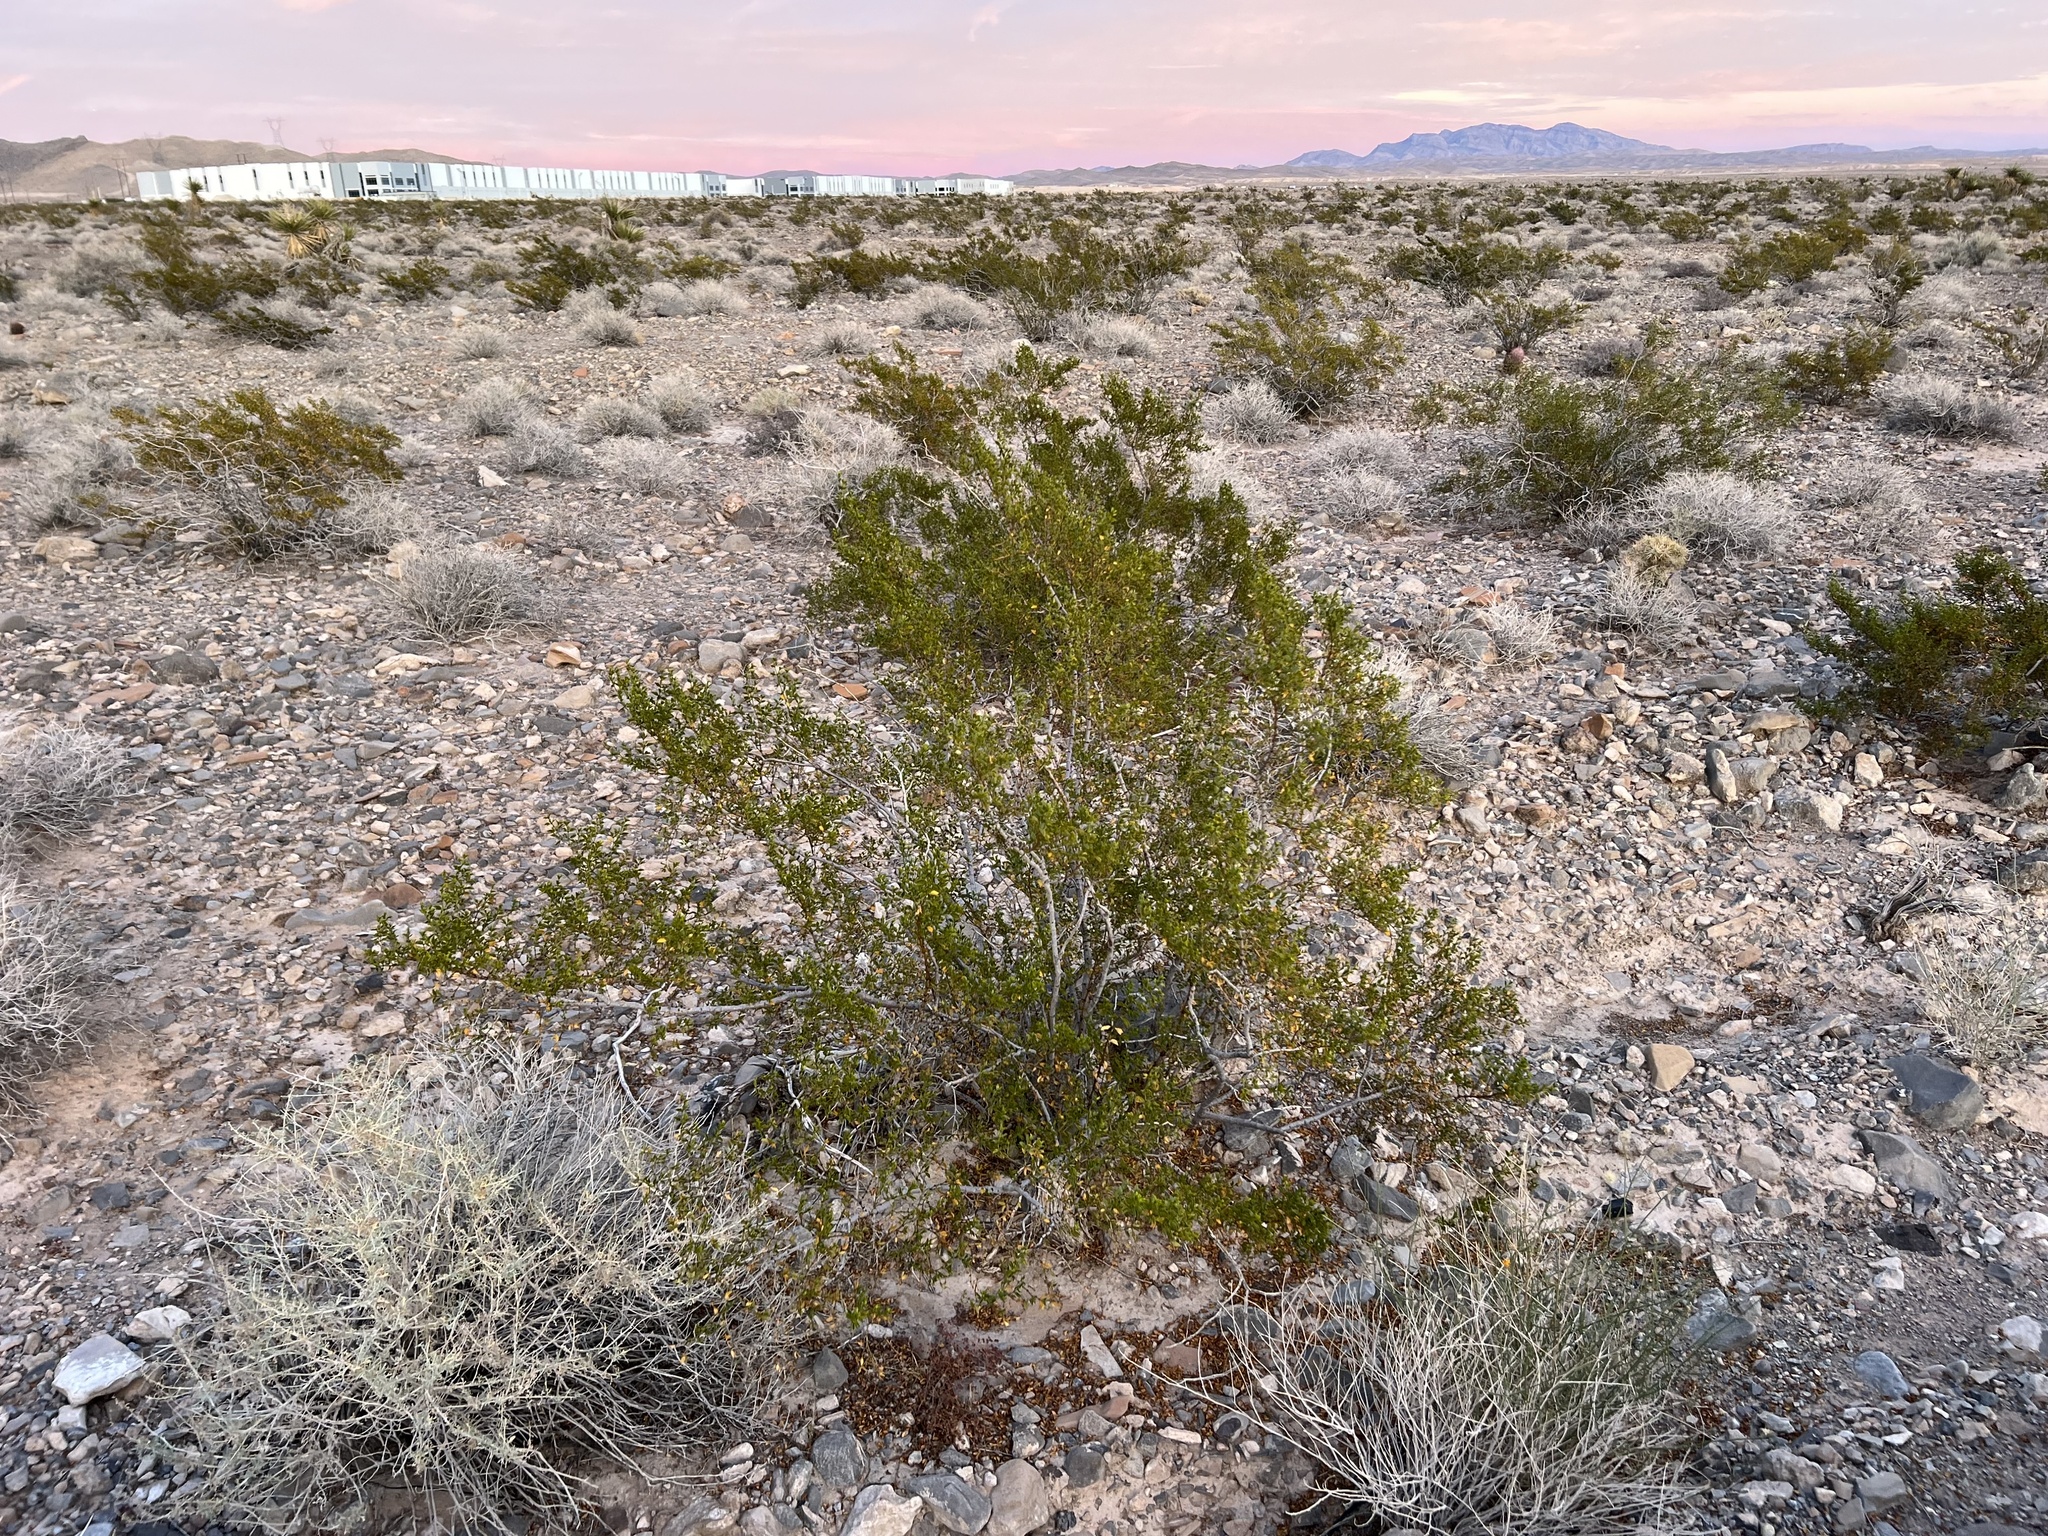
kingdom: Plantae
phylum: Tracheophyta
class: Magnoliopsida
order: Zygophyllales
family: Zygophyllaceae
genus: Larrea
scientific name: Larrea tridentata
